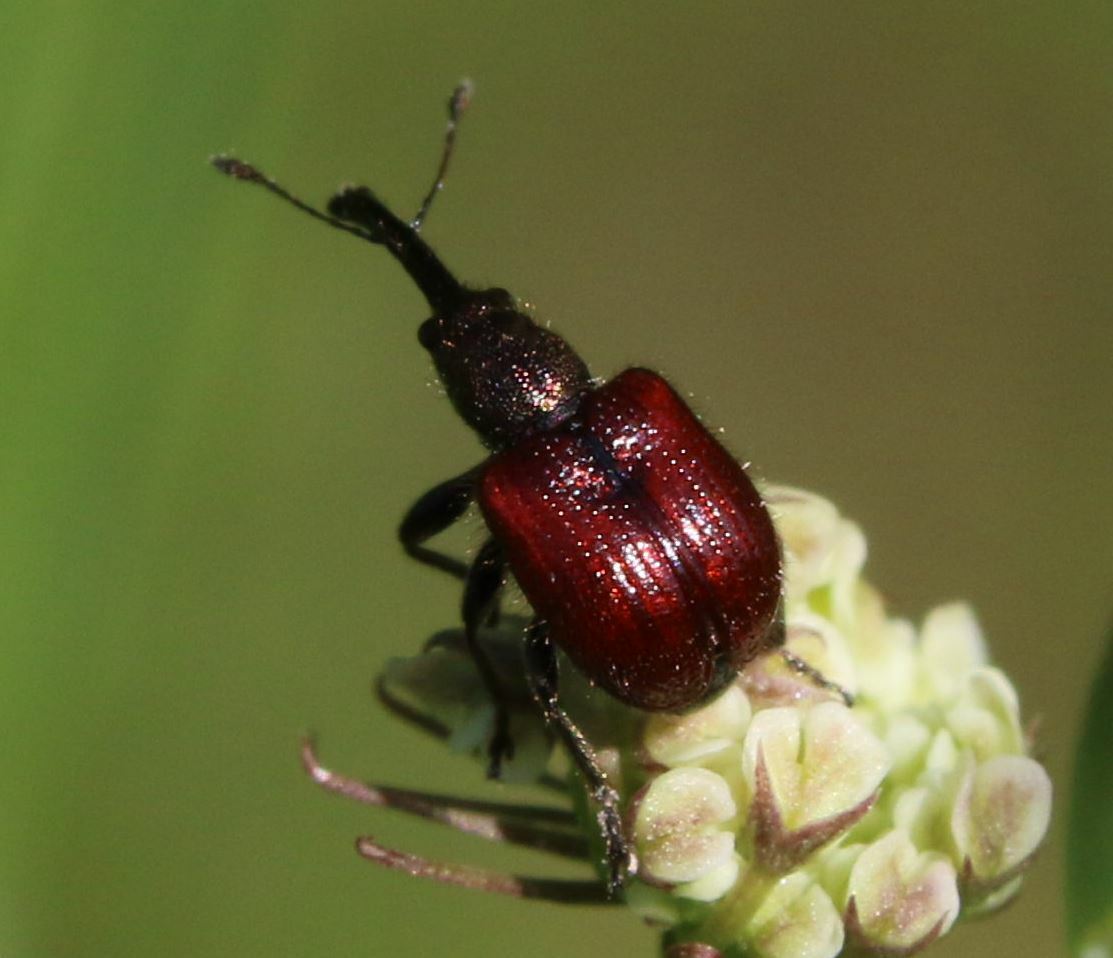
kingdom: Animalia
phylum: Arthropoda
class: Insecta
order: Coleoptera
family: Rhynchitidae
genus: Tatianaerhynchites
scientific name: Tatianaerhynchites aequatus
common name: Apple fruit rhynchites
